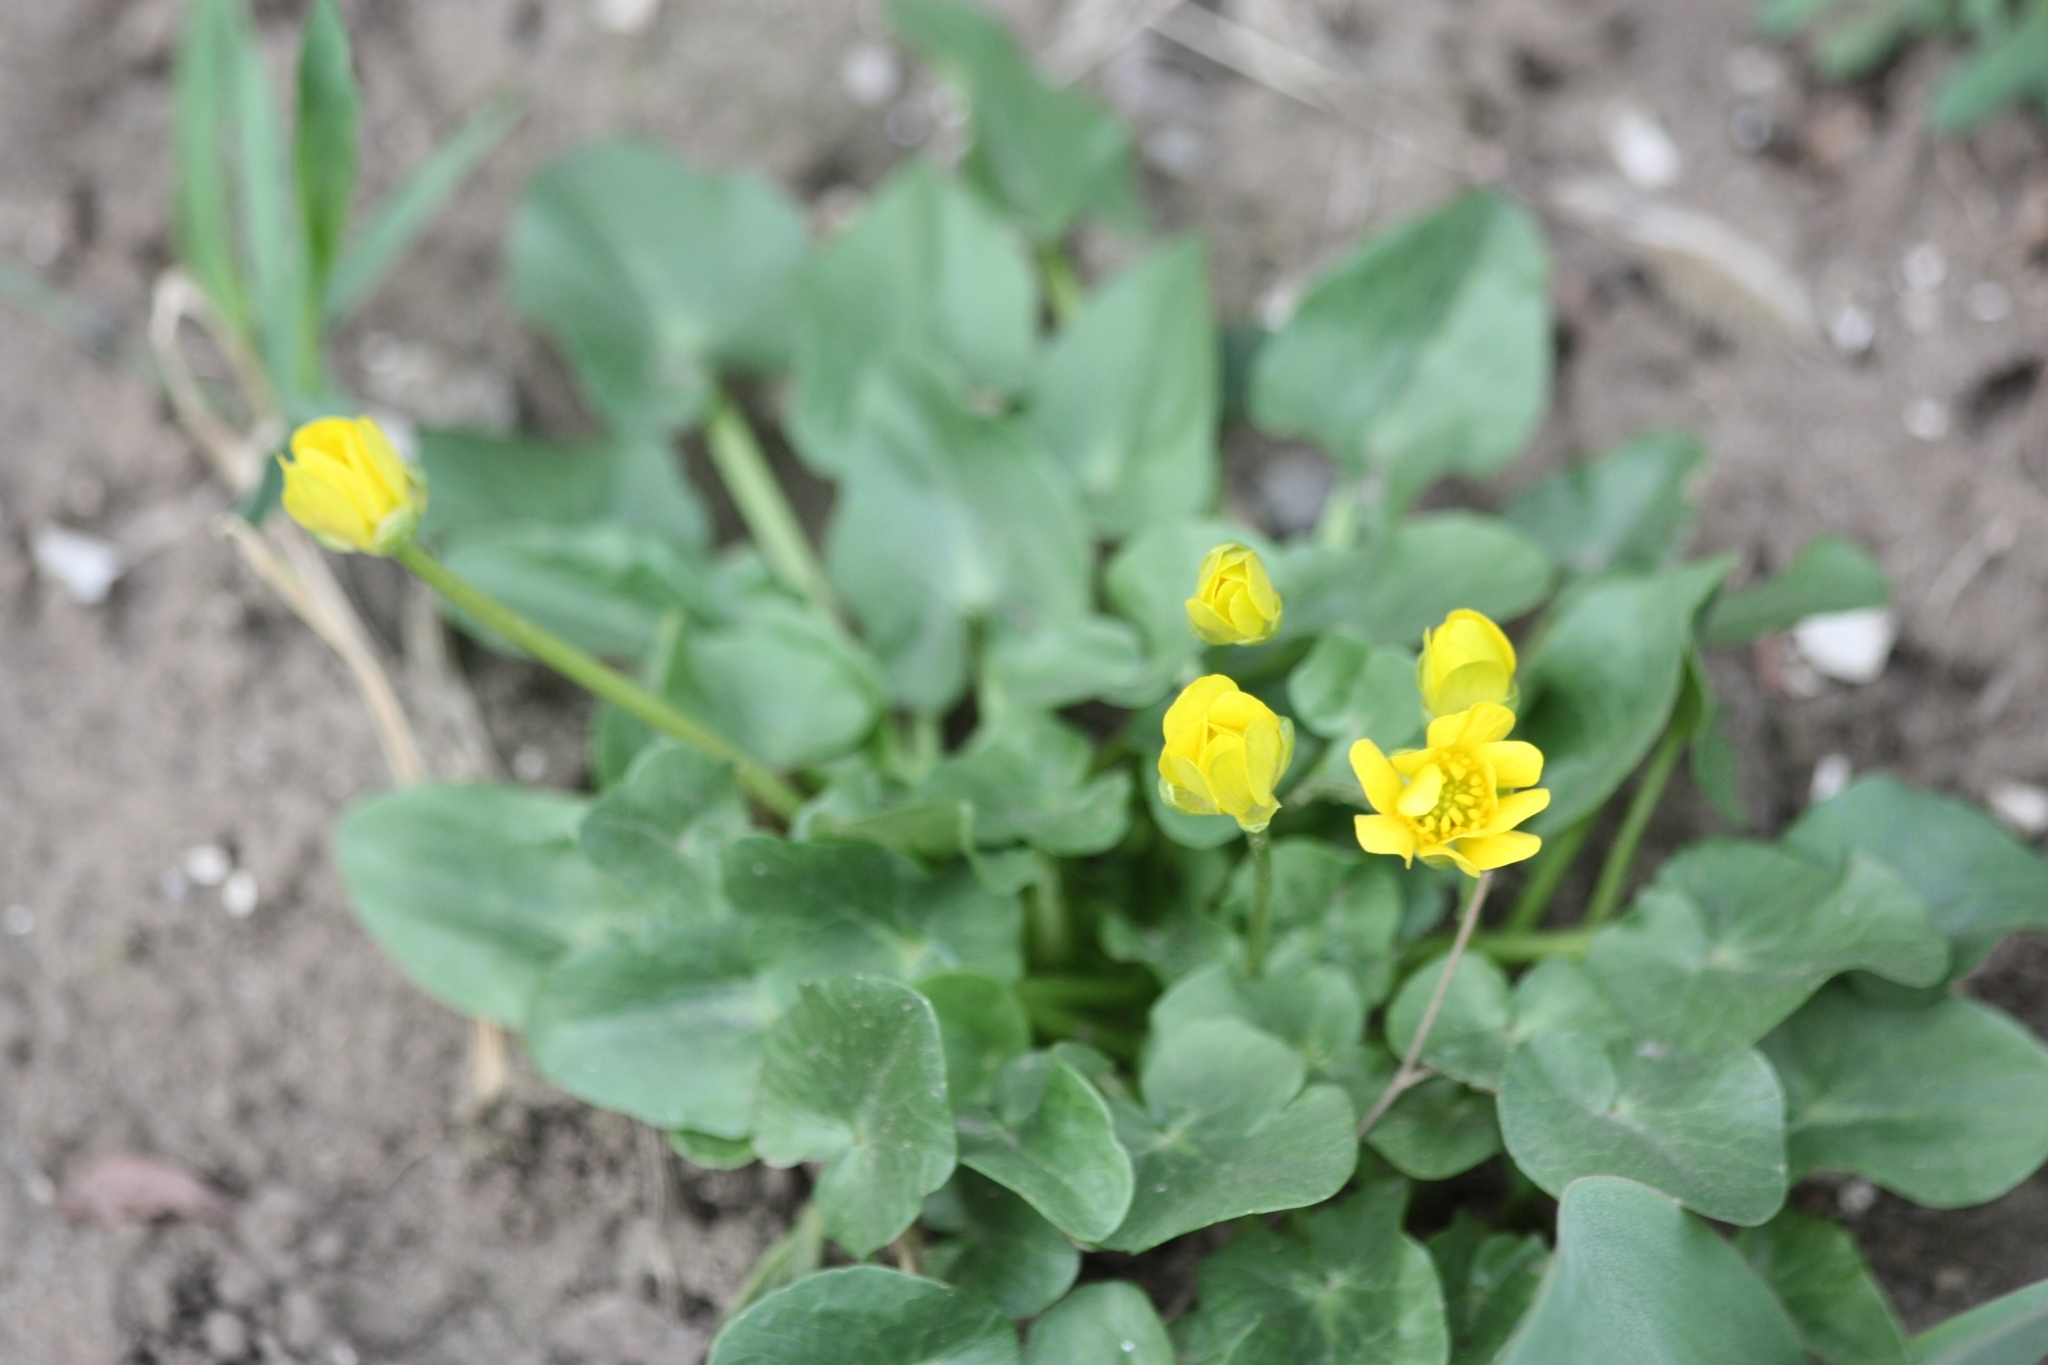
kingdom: Plantae
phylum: Tracheophyta
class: Magnoliopsida
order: Ranunculales
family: Ranunculaceae
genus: Ficaria
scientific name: Ficaria verna
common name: Lesser celandine
